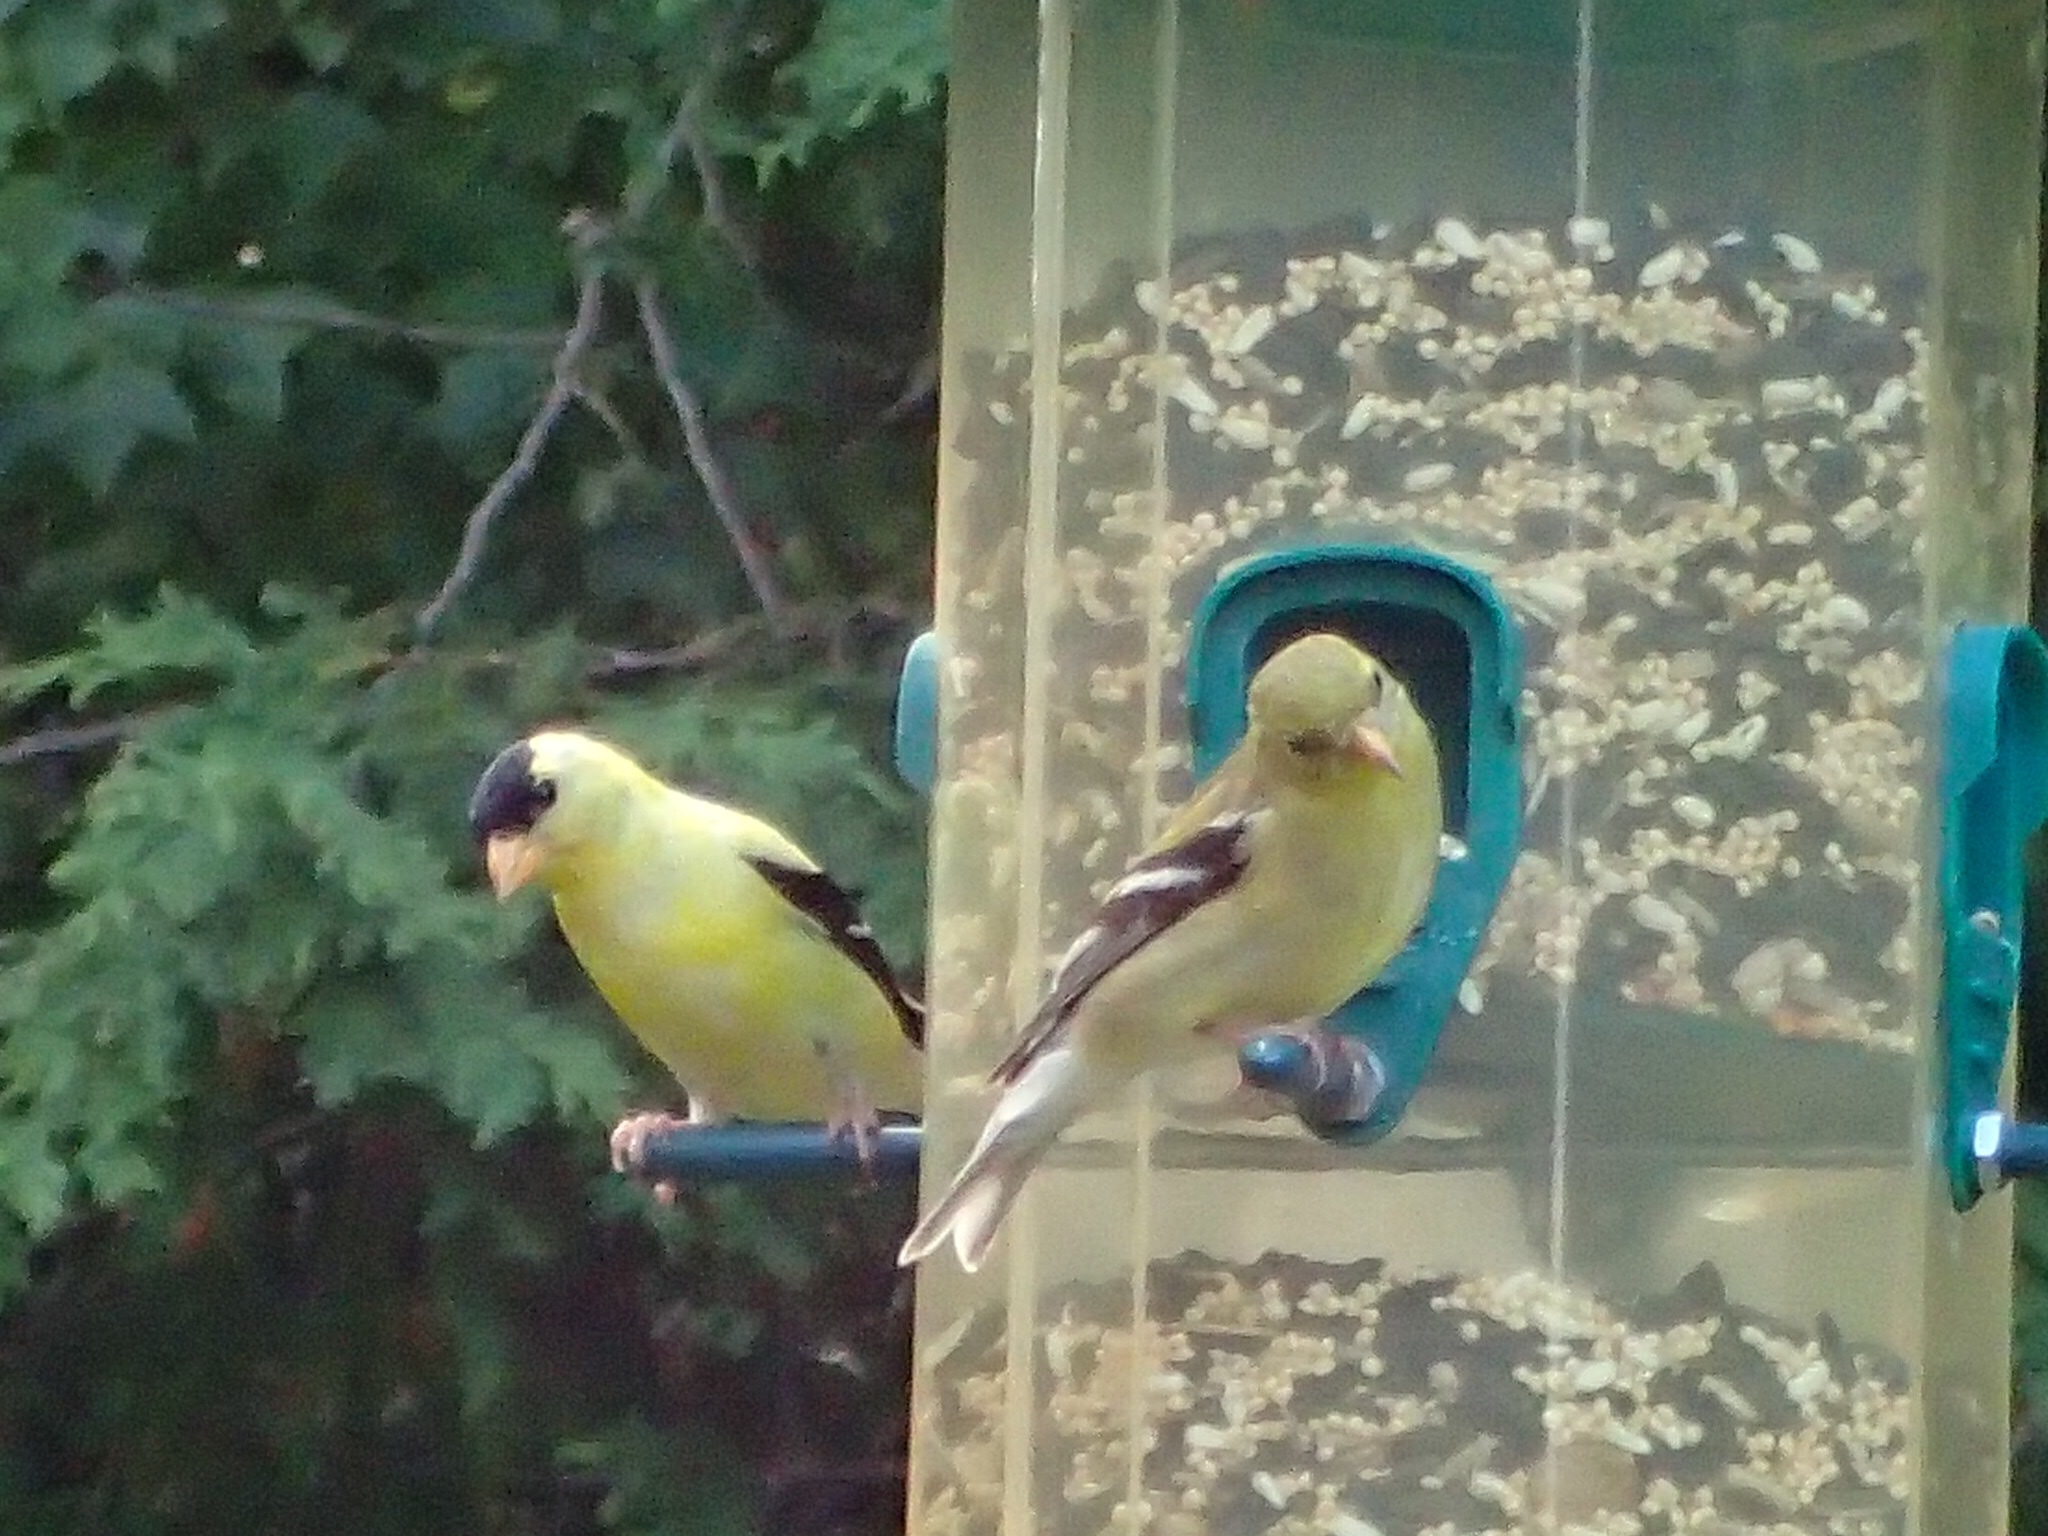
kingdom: Animalia
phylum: Chordata
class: Aves
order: Passeriformes
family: Fringillidae
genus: Spinus
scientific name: Spinus tristis
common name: American goldfinch
